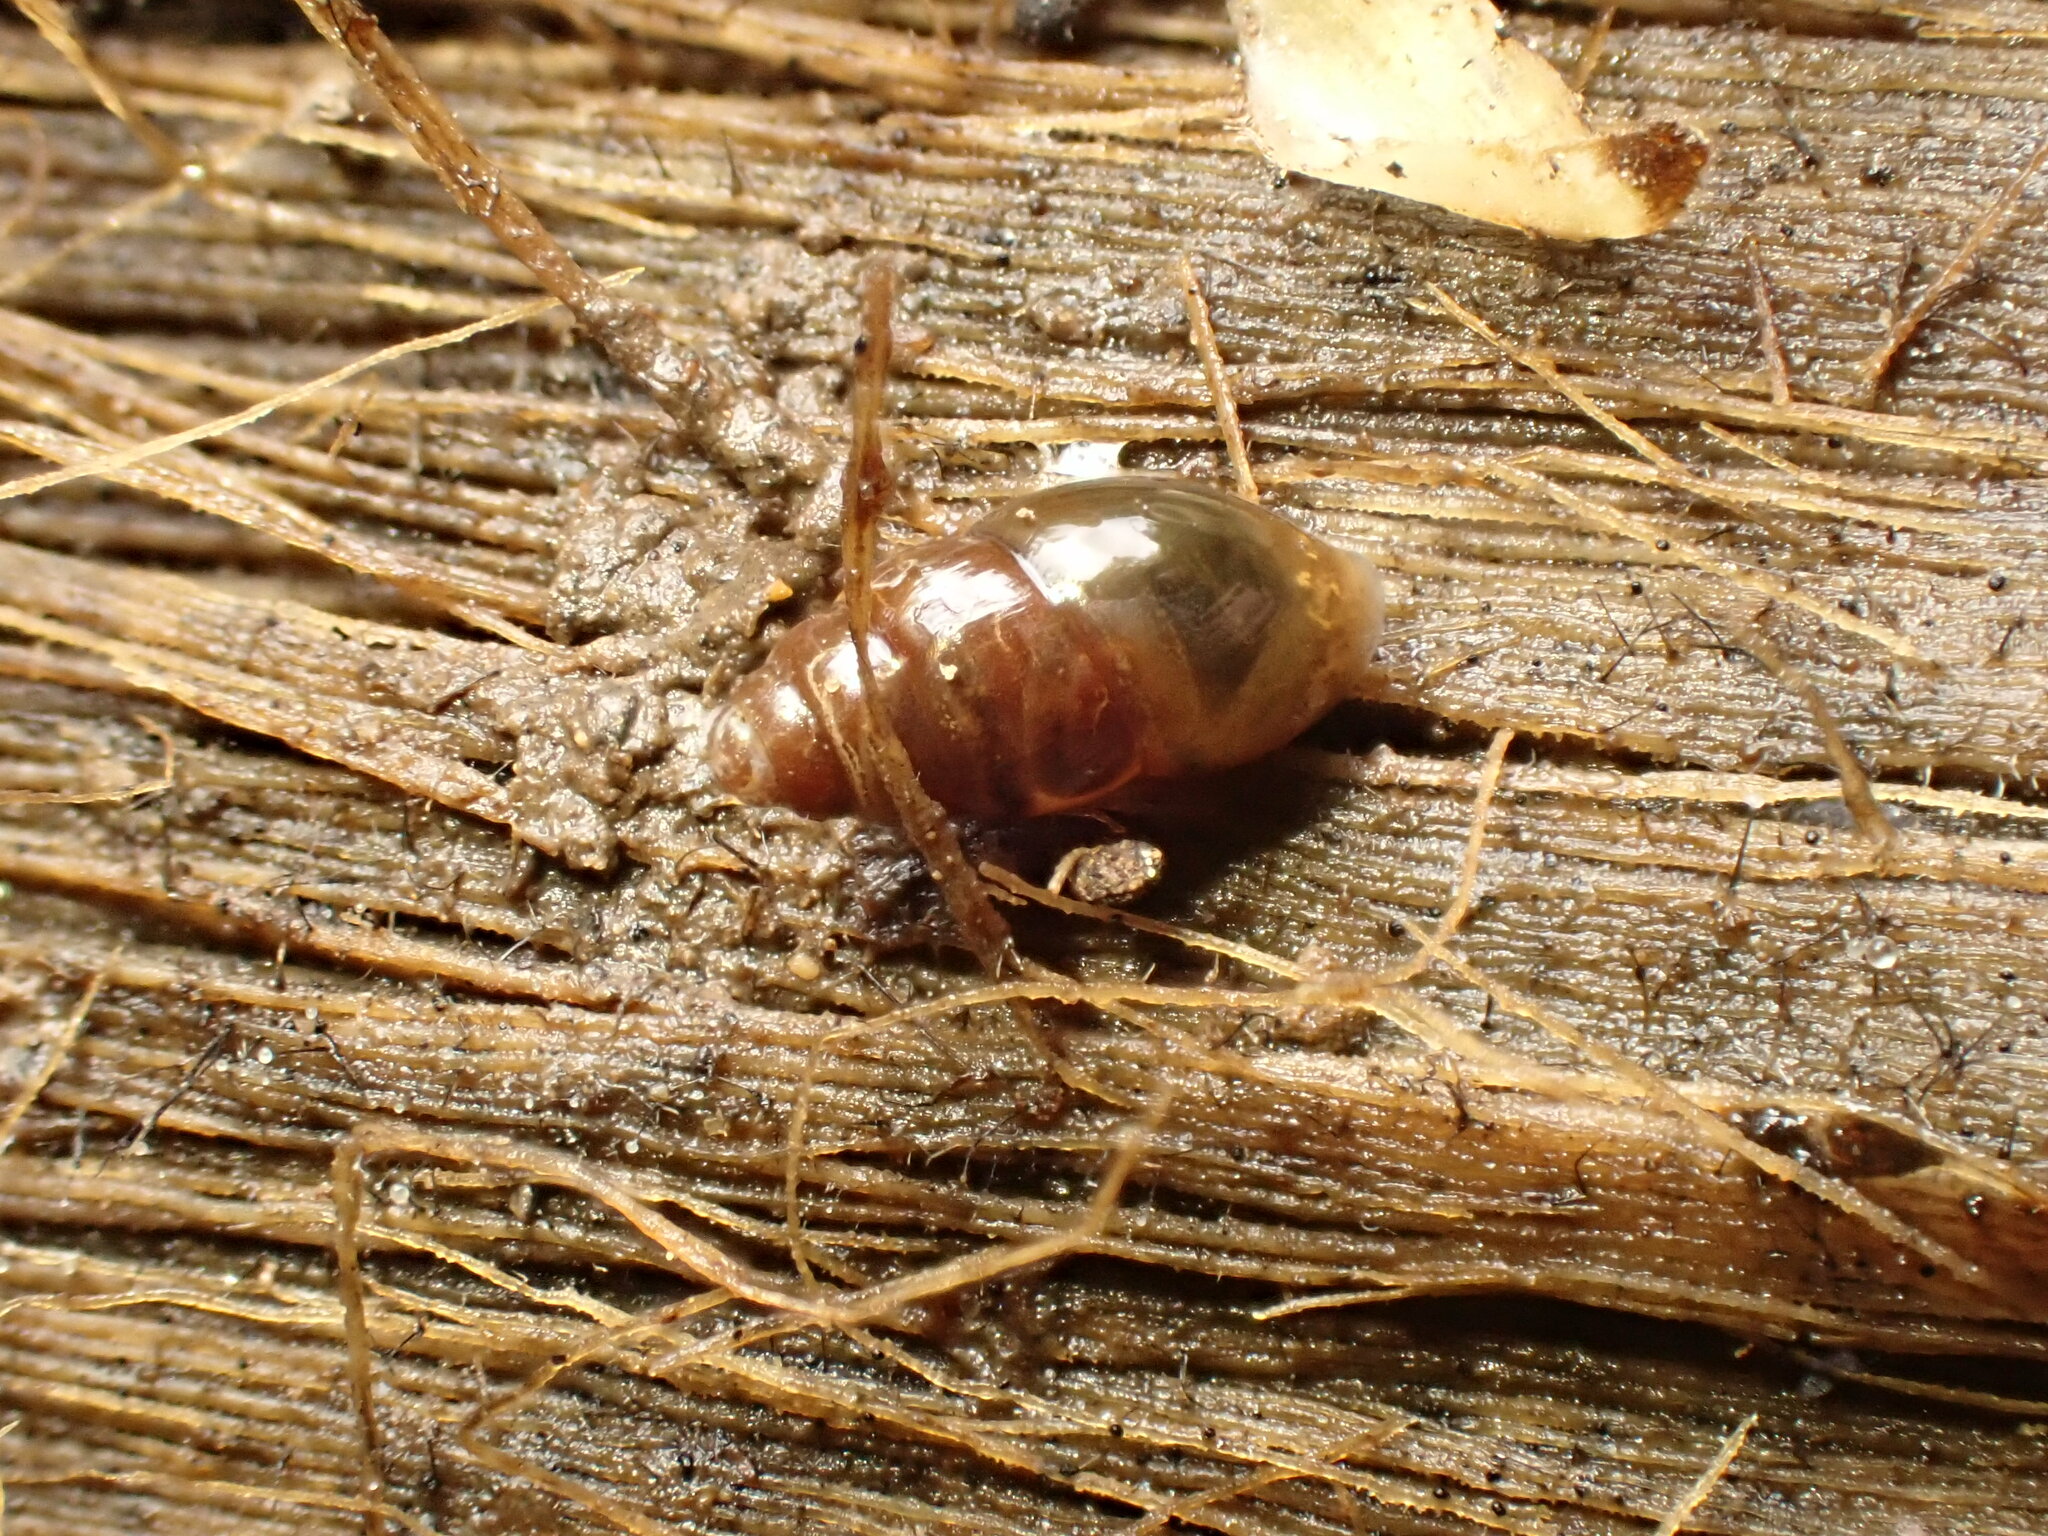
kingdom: Animalia
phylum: Mollusca
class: Gastropoda
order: Stylommatophora
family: Cochlicopidae
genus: Cochlicopa
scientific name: Cochlicopa lubrica
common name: Glossy pillar snail
